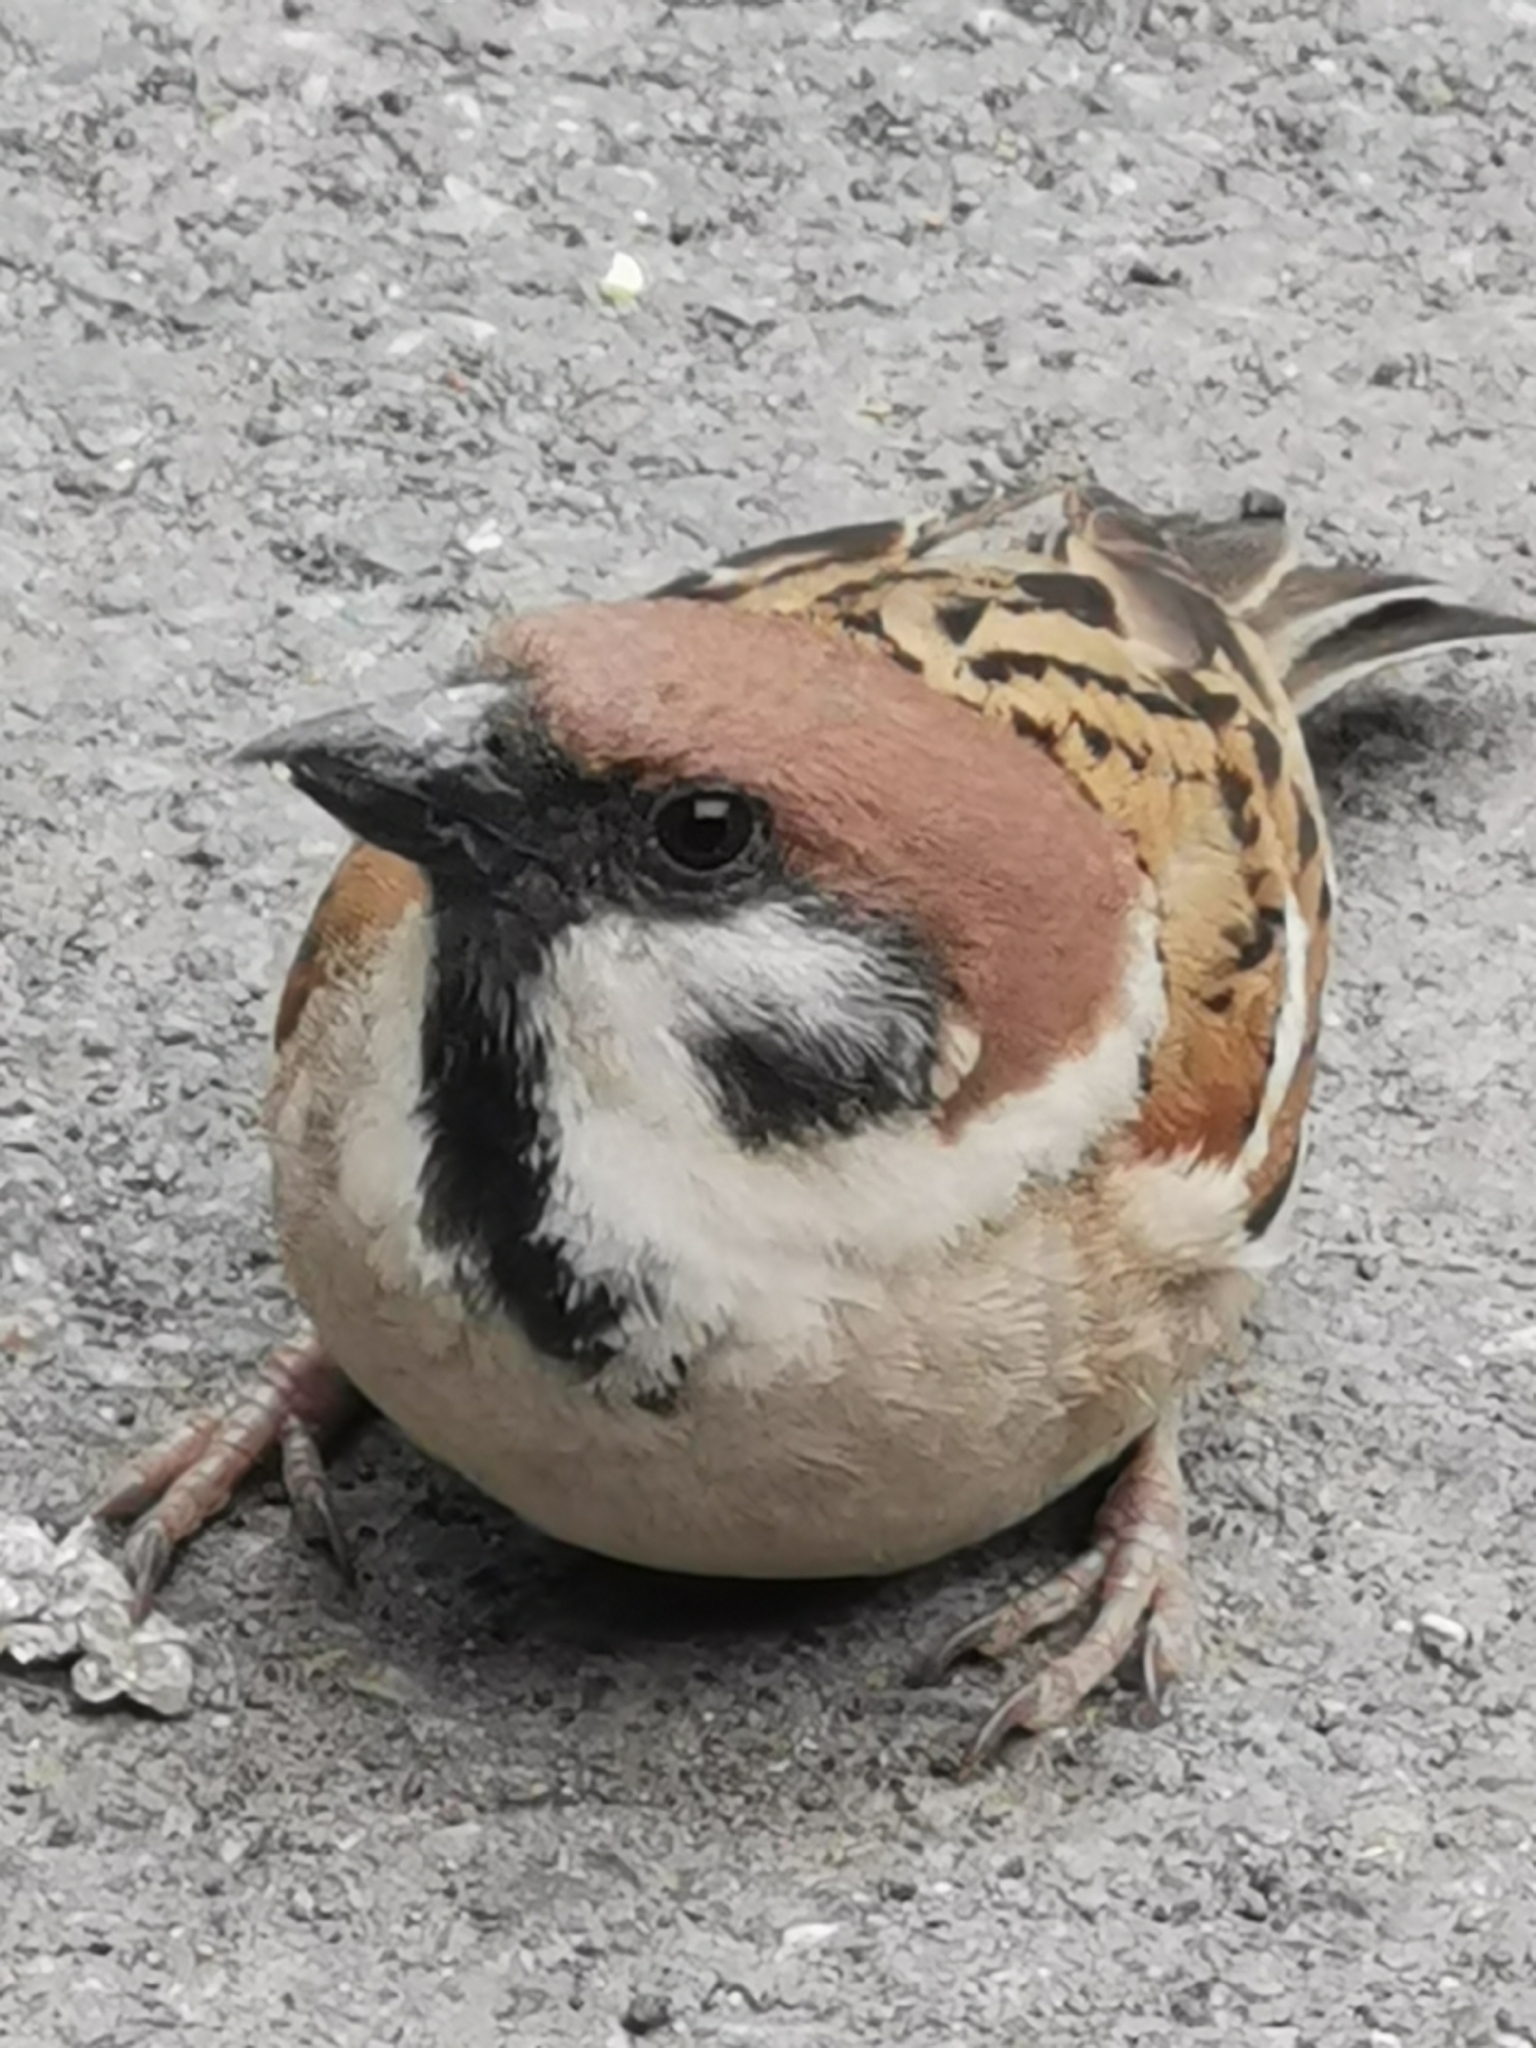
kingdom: Animalia
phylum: Chordata
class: Aves
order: Passeriformes
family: Passeridae
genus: Passer
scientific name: Passer montanus
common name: Eurasian tree sparrow
